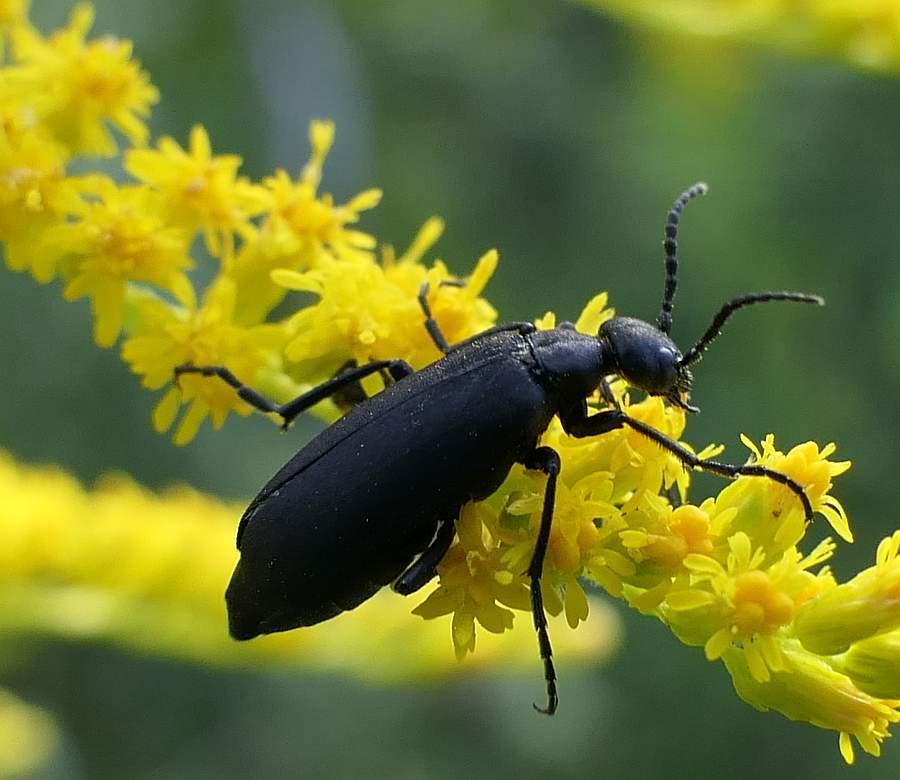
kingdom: Animalia
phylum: Arthropoda
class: Insecta
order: Coleoptera
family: Meloidae
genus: Epicauta
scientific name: Epicauta pensylvanica
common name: Black blister beetle
